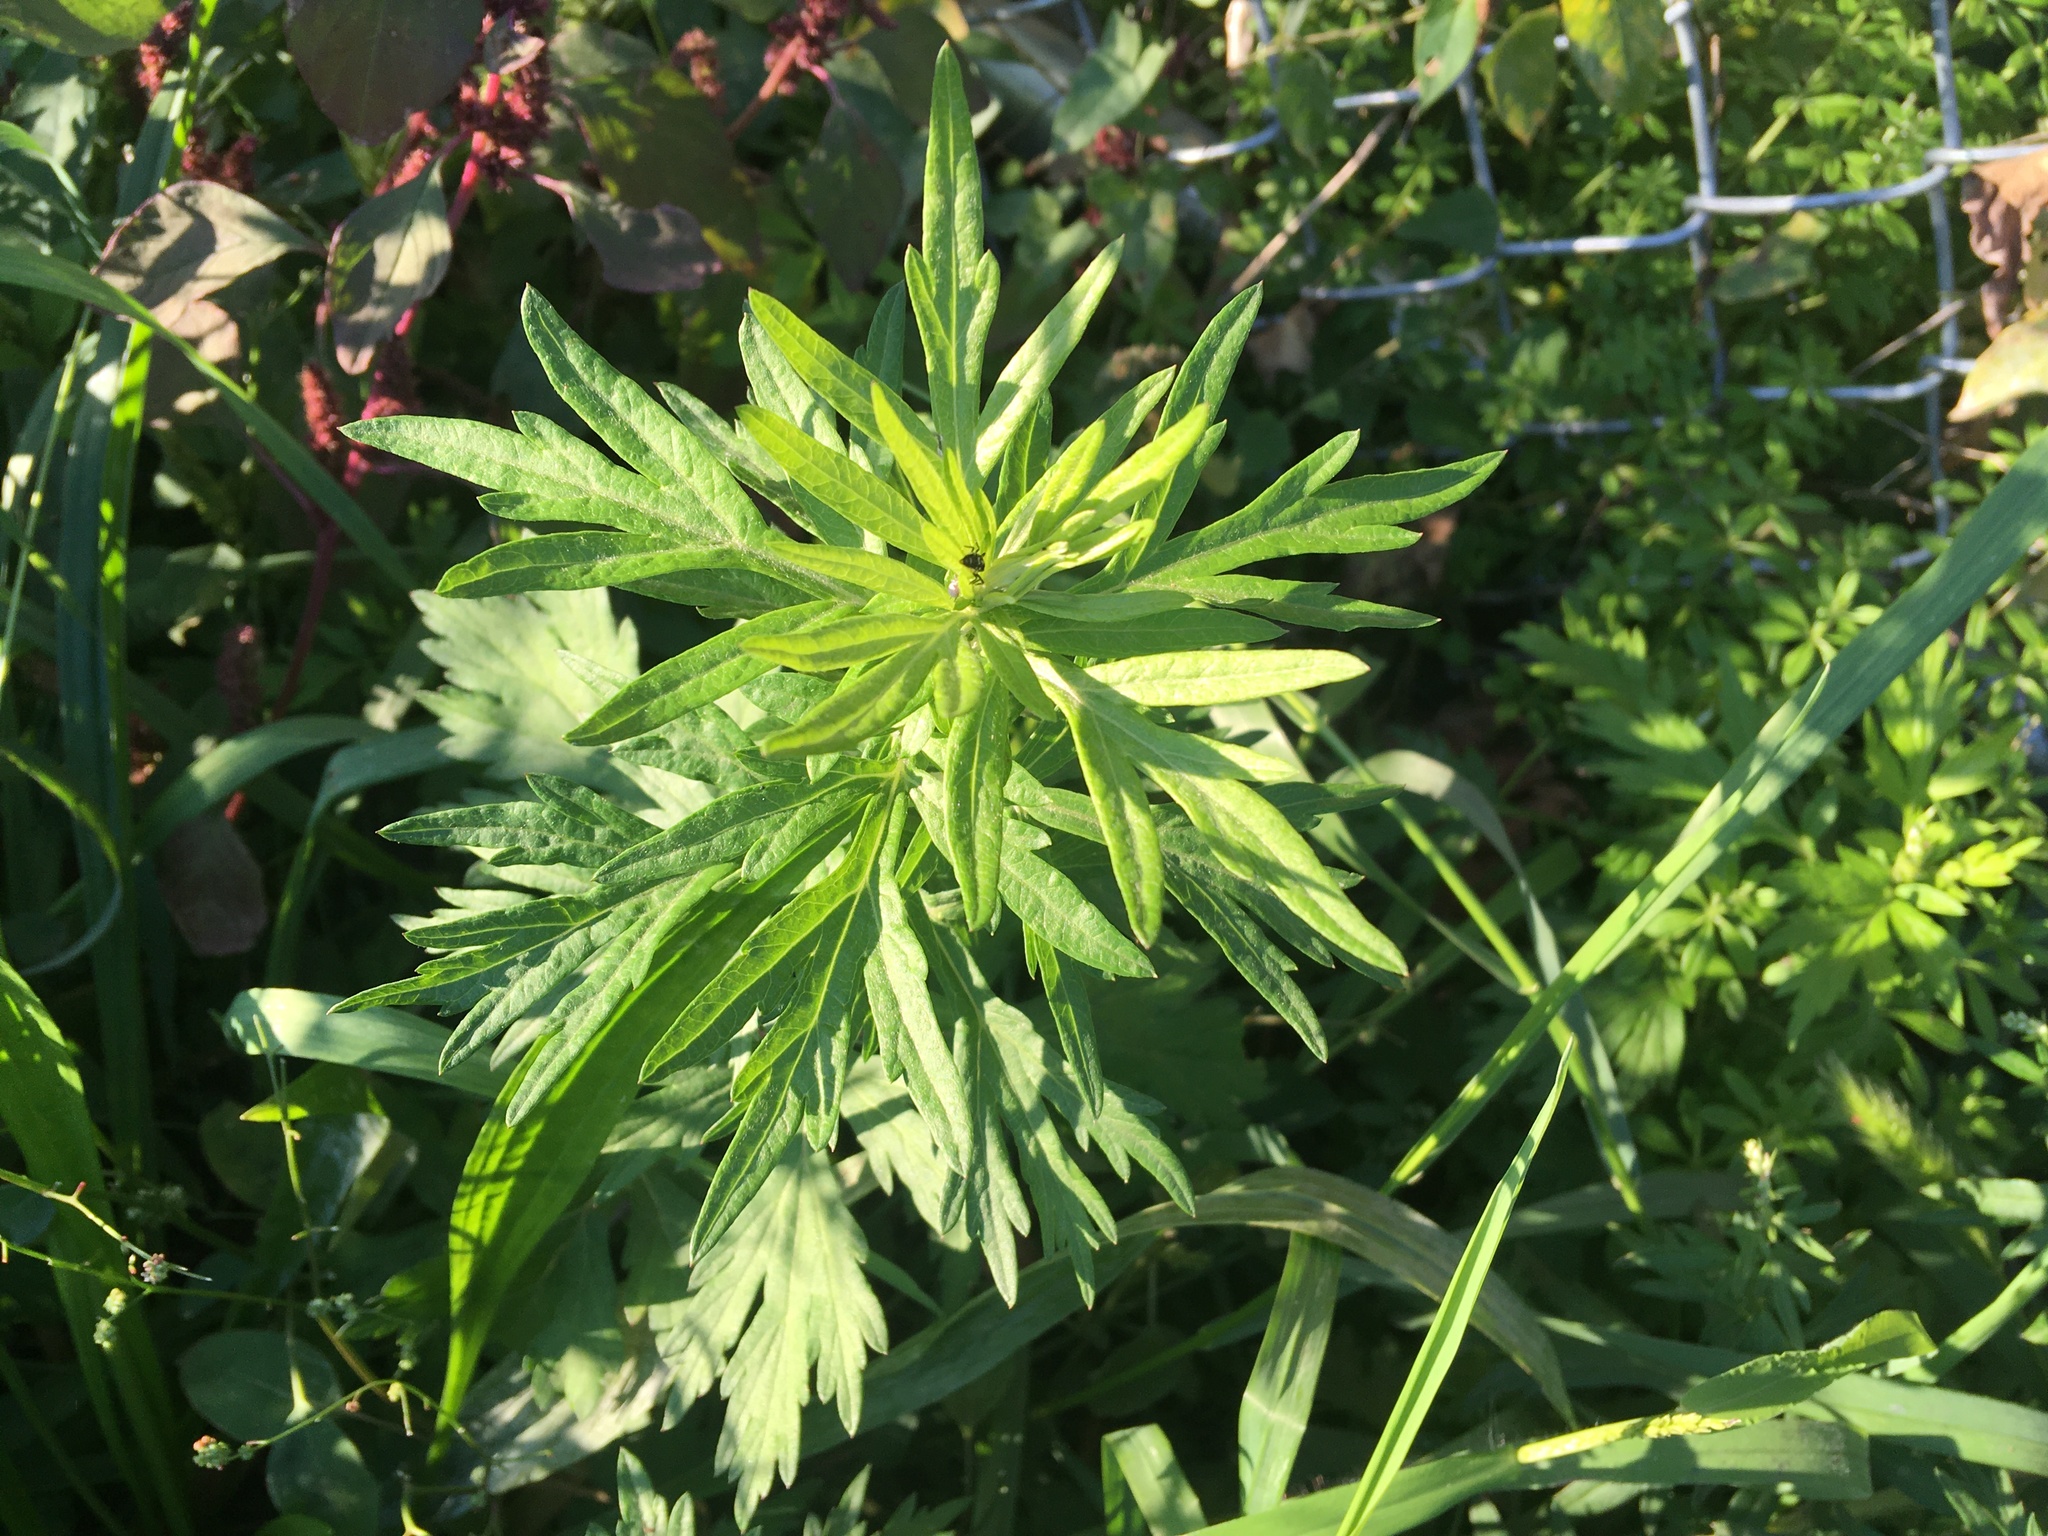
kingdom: Plantae
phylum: Tracheophyta
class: Magnoliopsida
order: Asterales
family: Asteraceae
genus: Artemisia
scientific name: Artemisia vulgaris
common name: Mugwort
